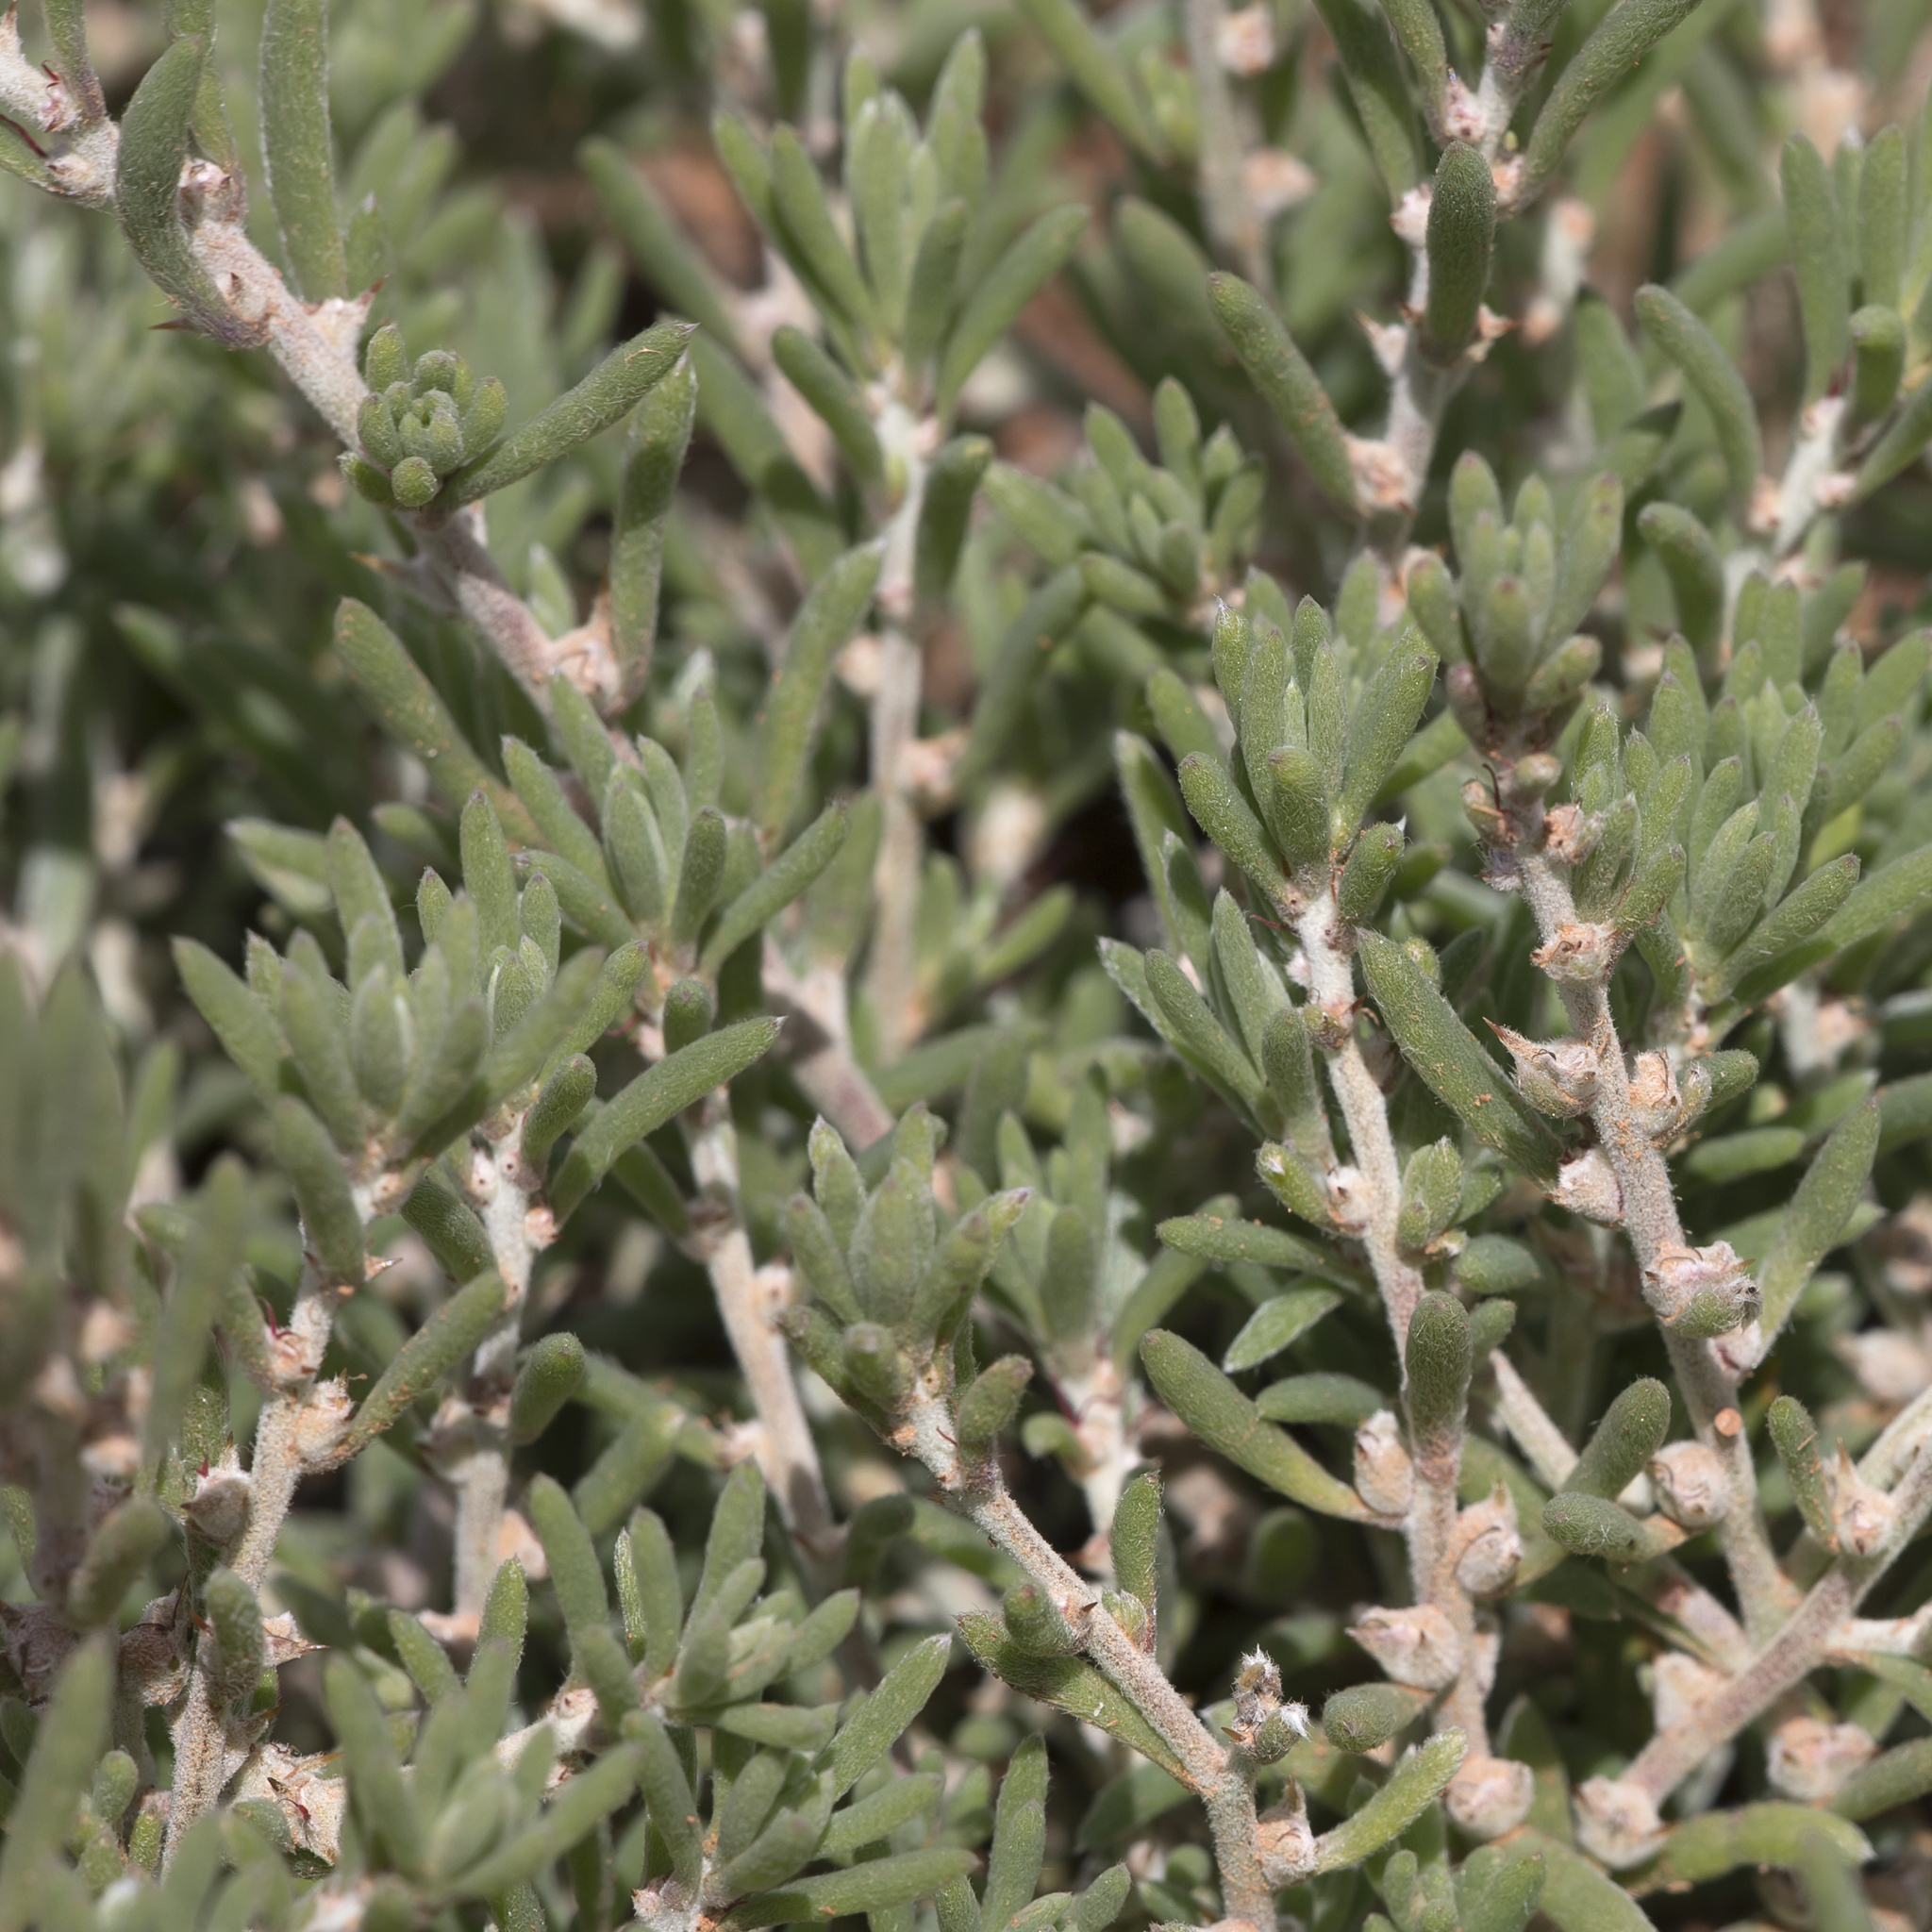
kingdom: Plantae
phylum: Tracheophyta
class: Magnoliopsida
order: Caryophyllales
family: Amaranthaceae
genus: Sclerolaena
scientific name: Sclerolaena diacantha
